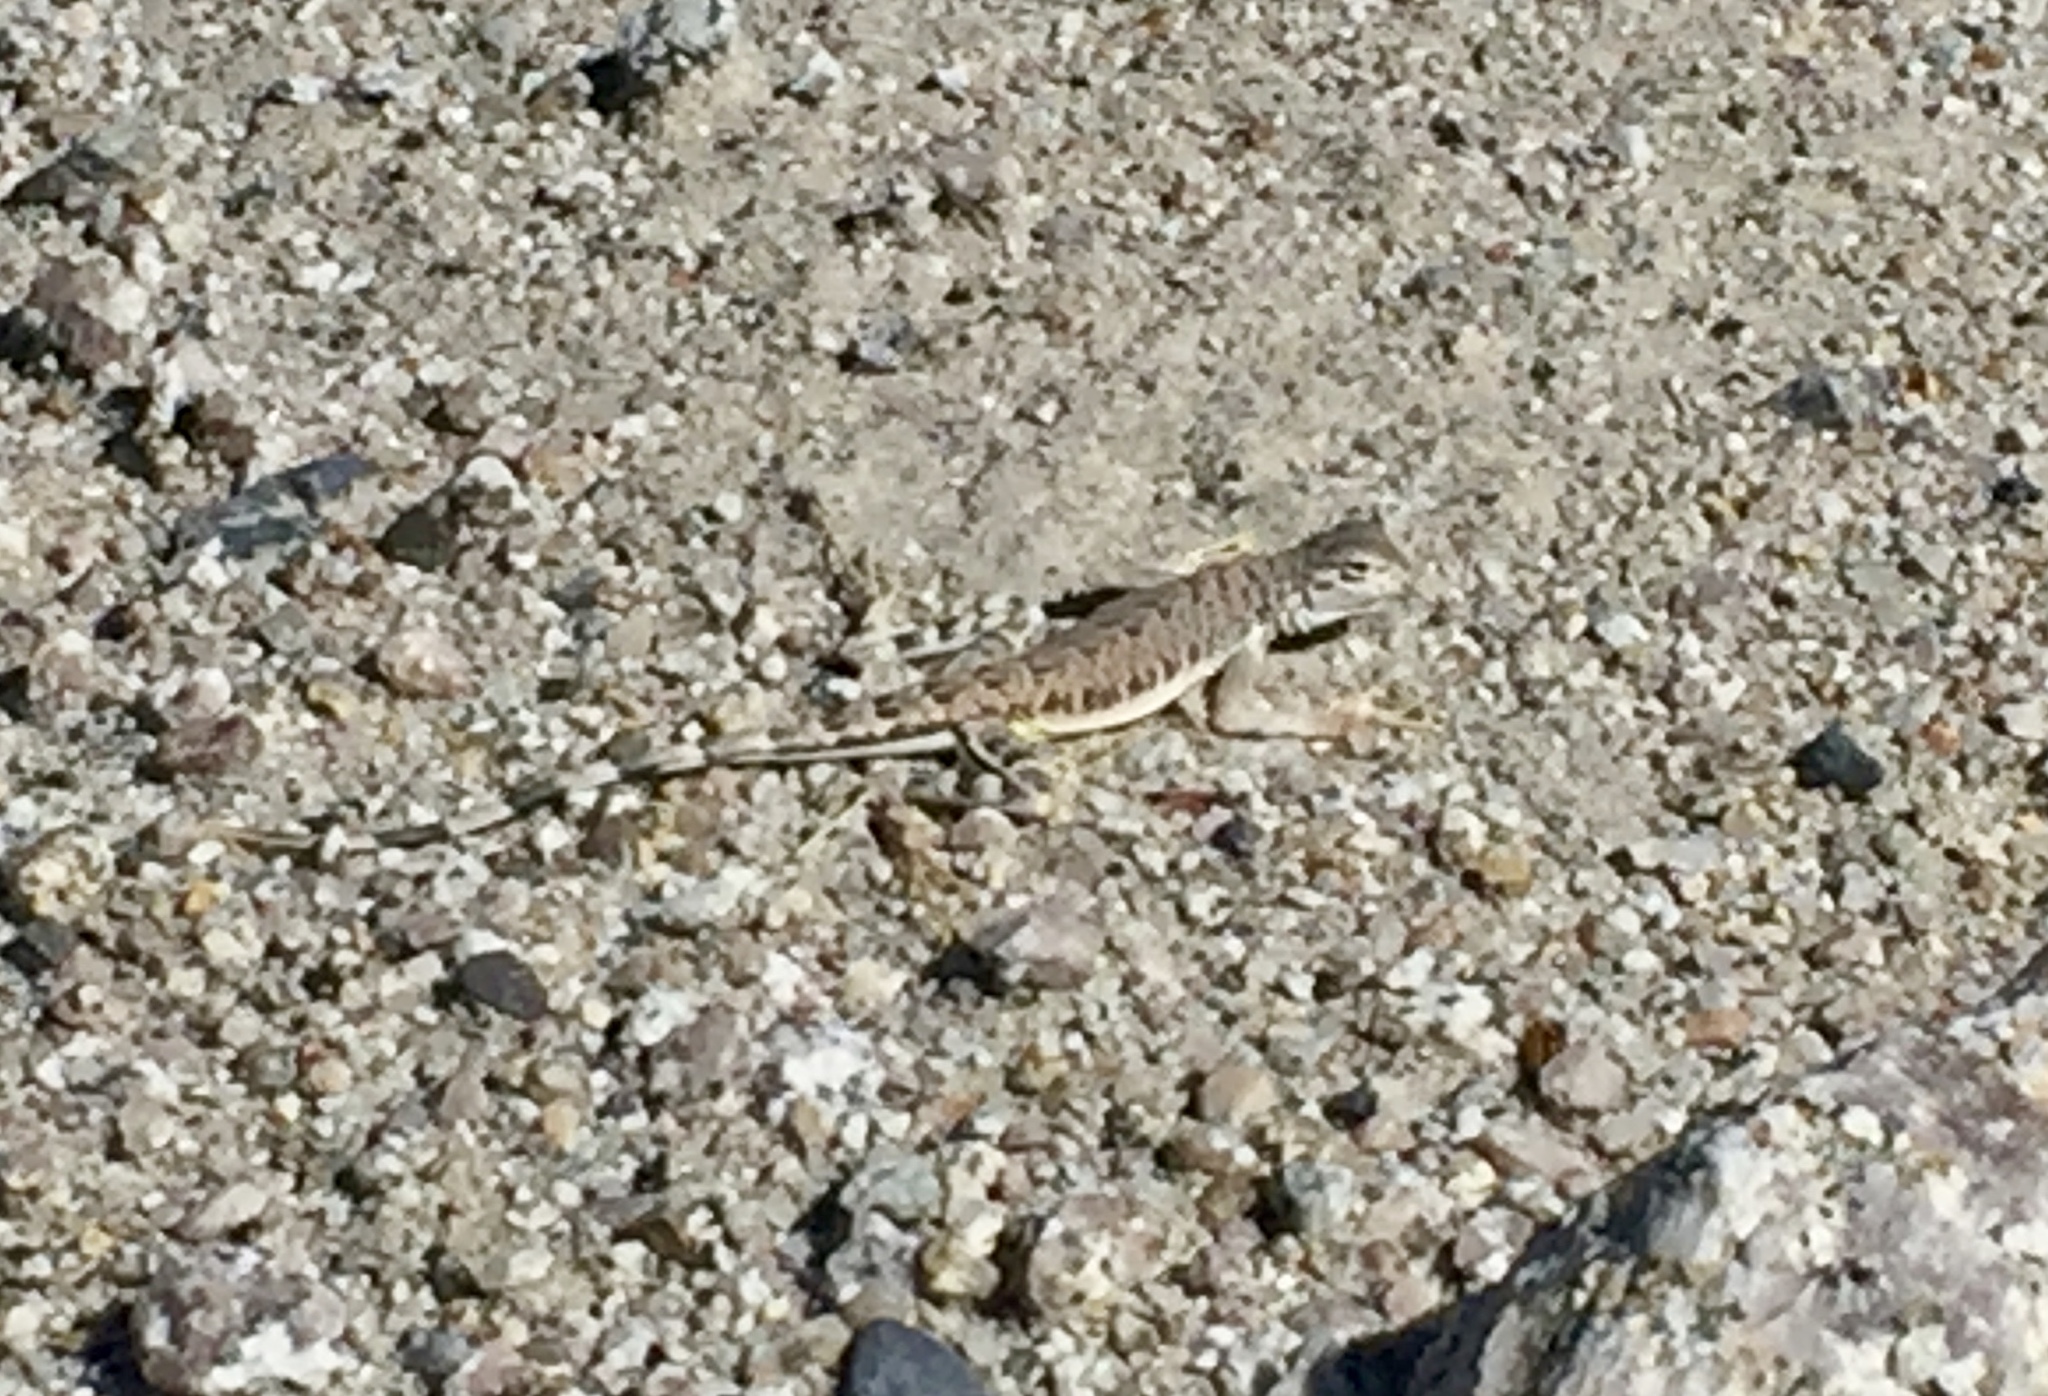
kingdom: Animalia
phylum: Chordata
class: Squamata
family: Phrynosomatidae
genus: Callisaurus
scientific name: Callisaurus draconoides
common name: Zebra-tailed lizard
